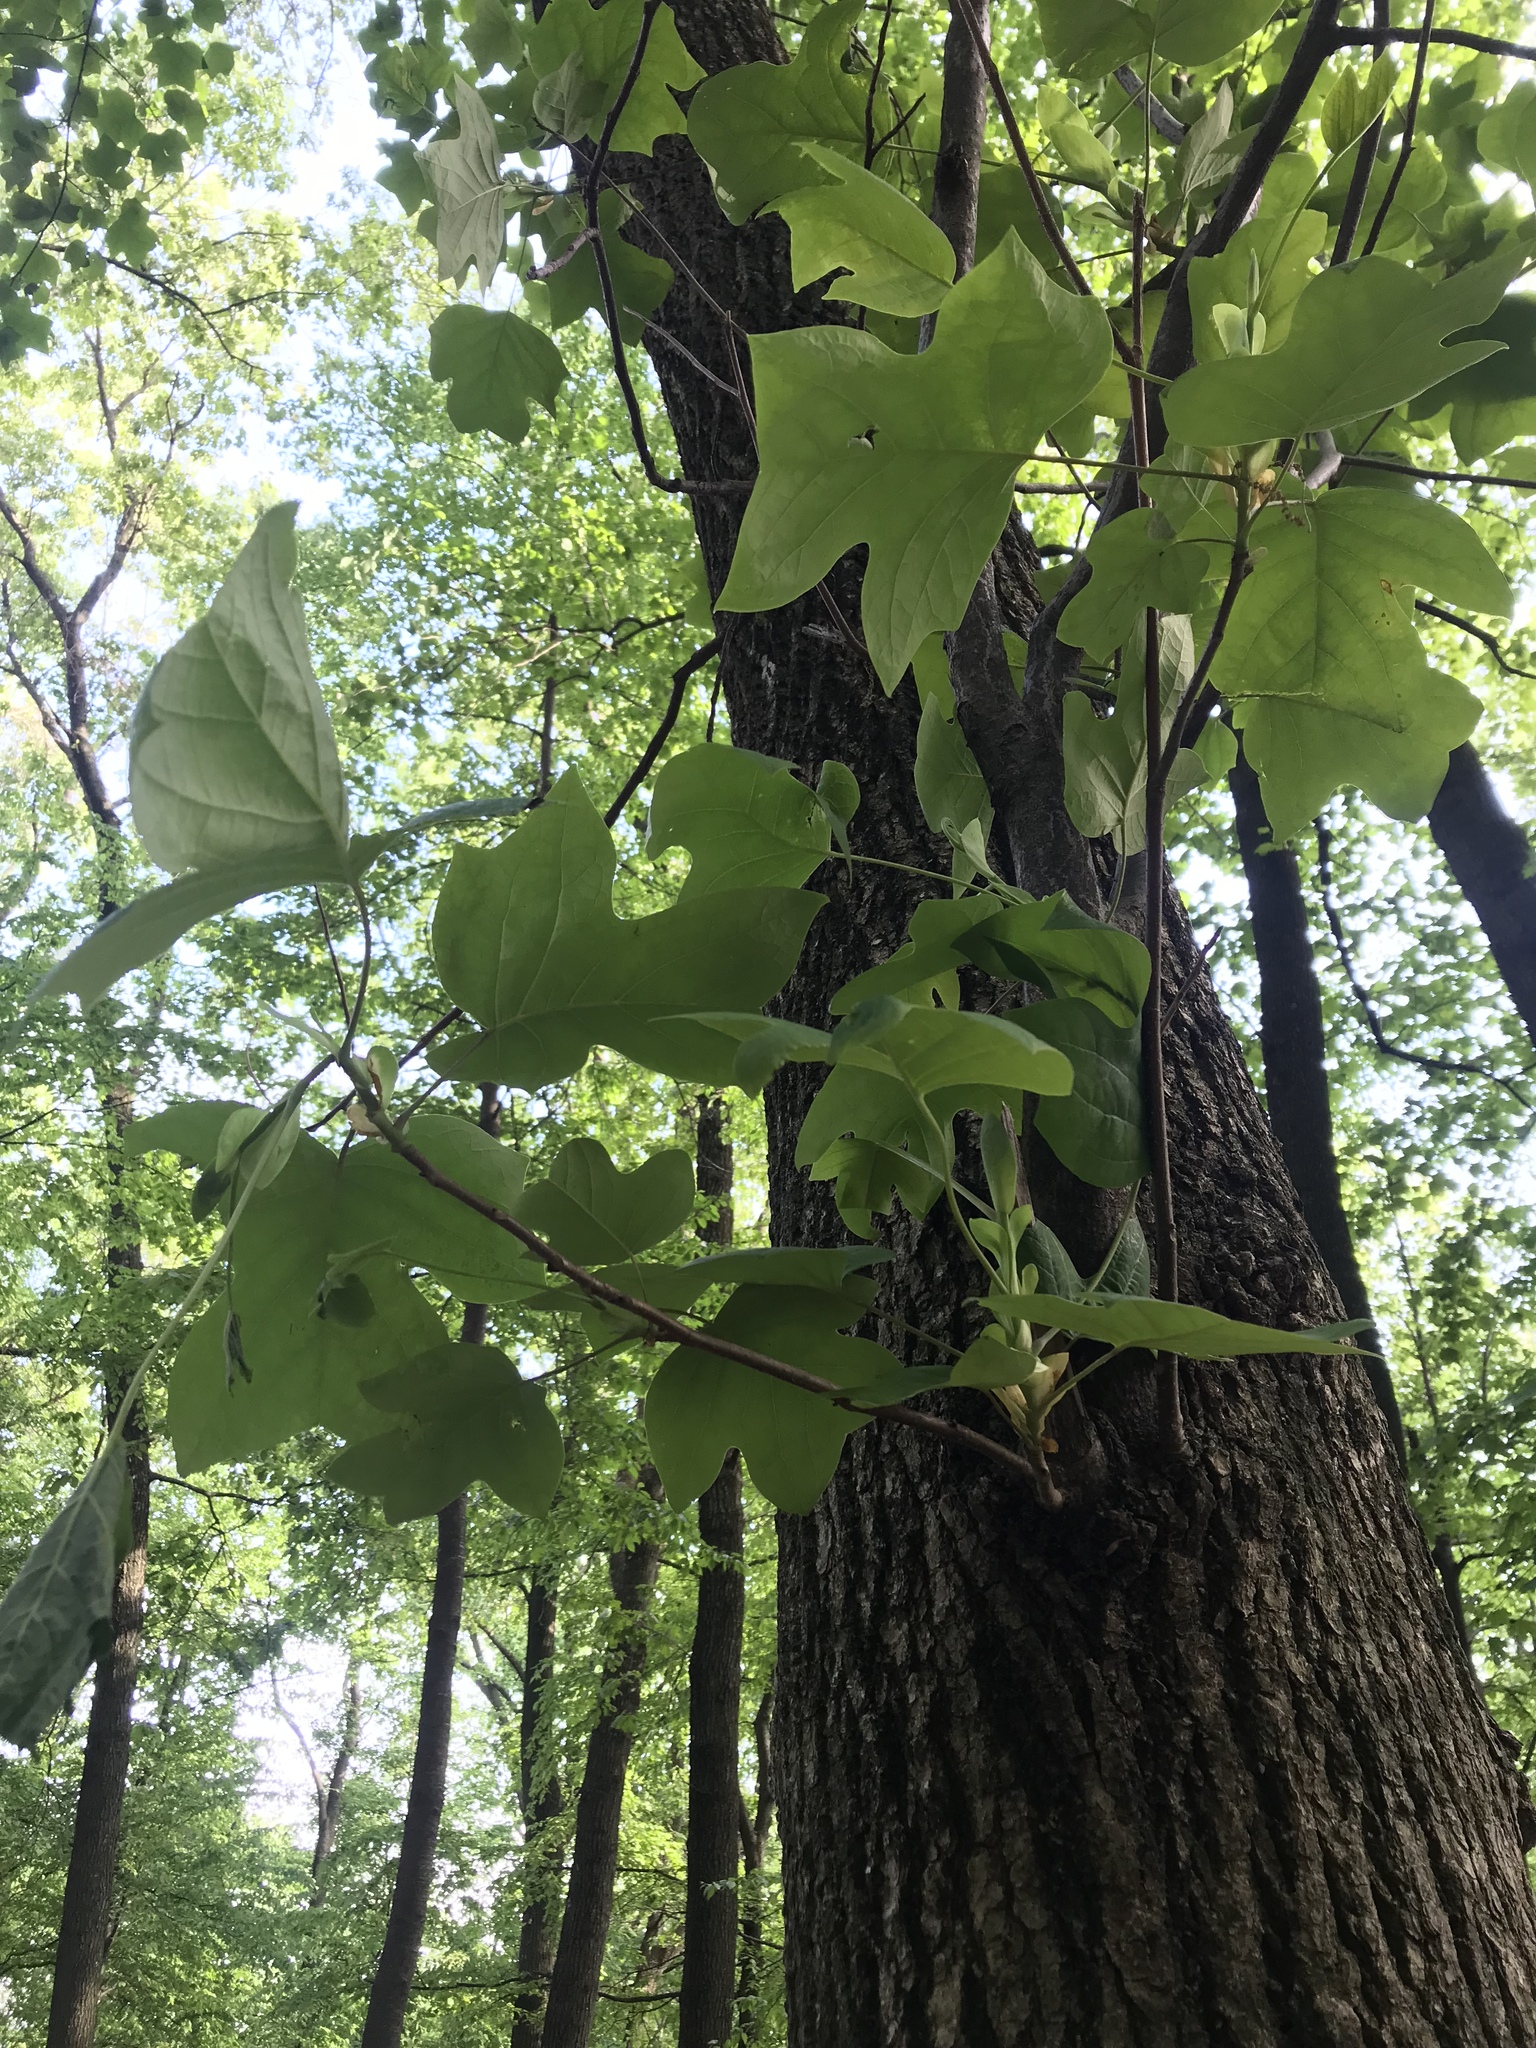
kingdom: Plantae
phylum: Tracheophyta
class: Magnoliopsida
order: Magnoliales
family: Magnoliaceae
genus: Liriodendron
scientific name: Liriodendron tulipifera
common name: Tulip tree
